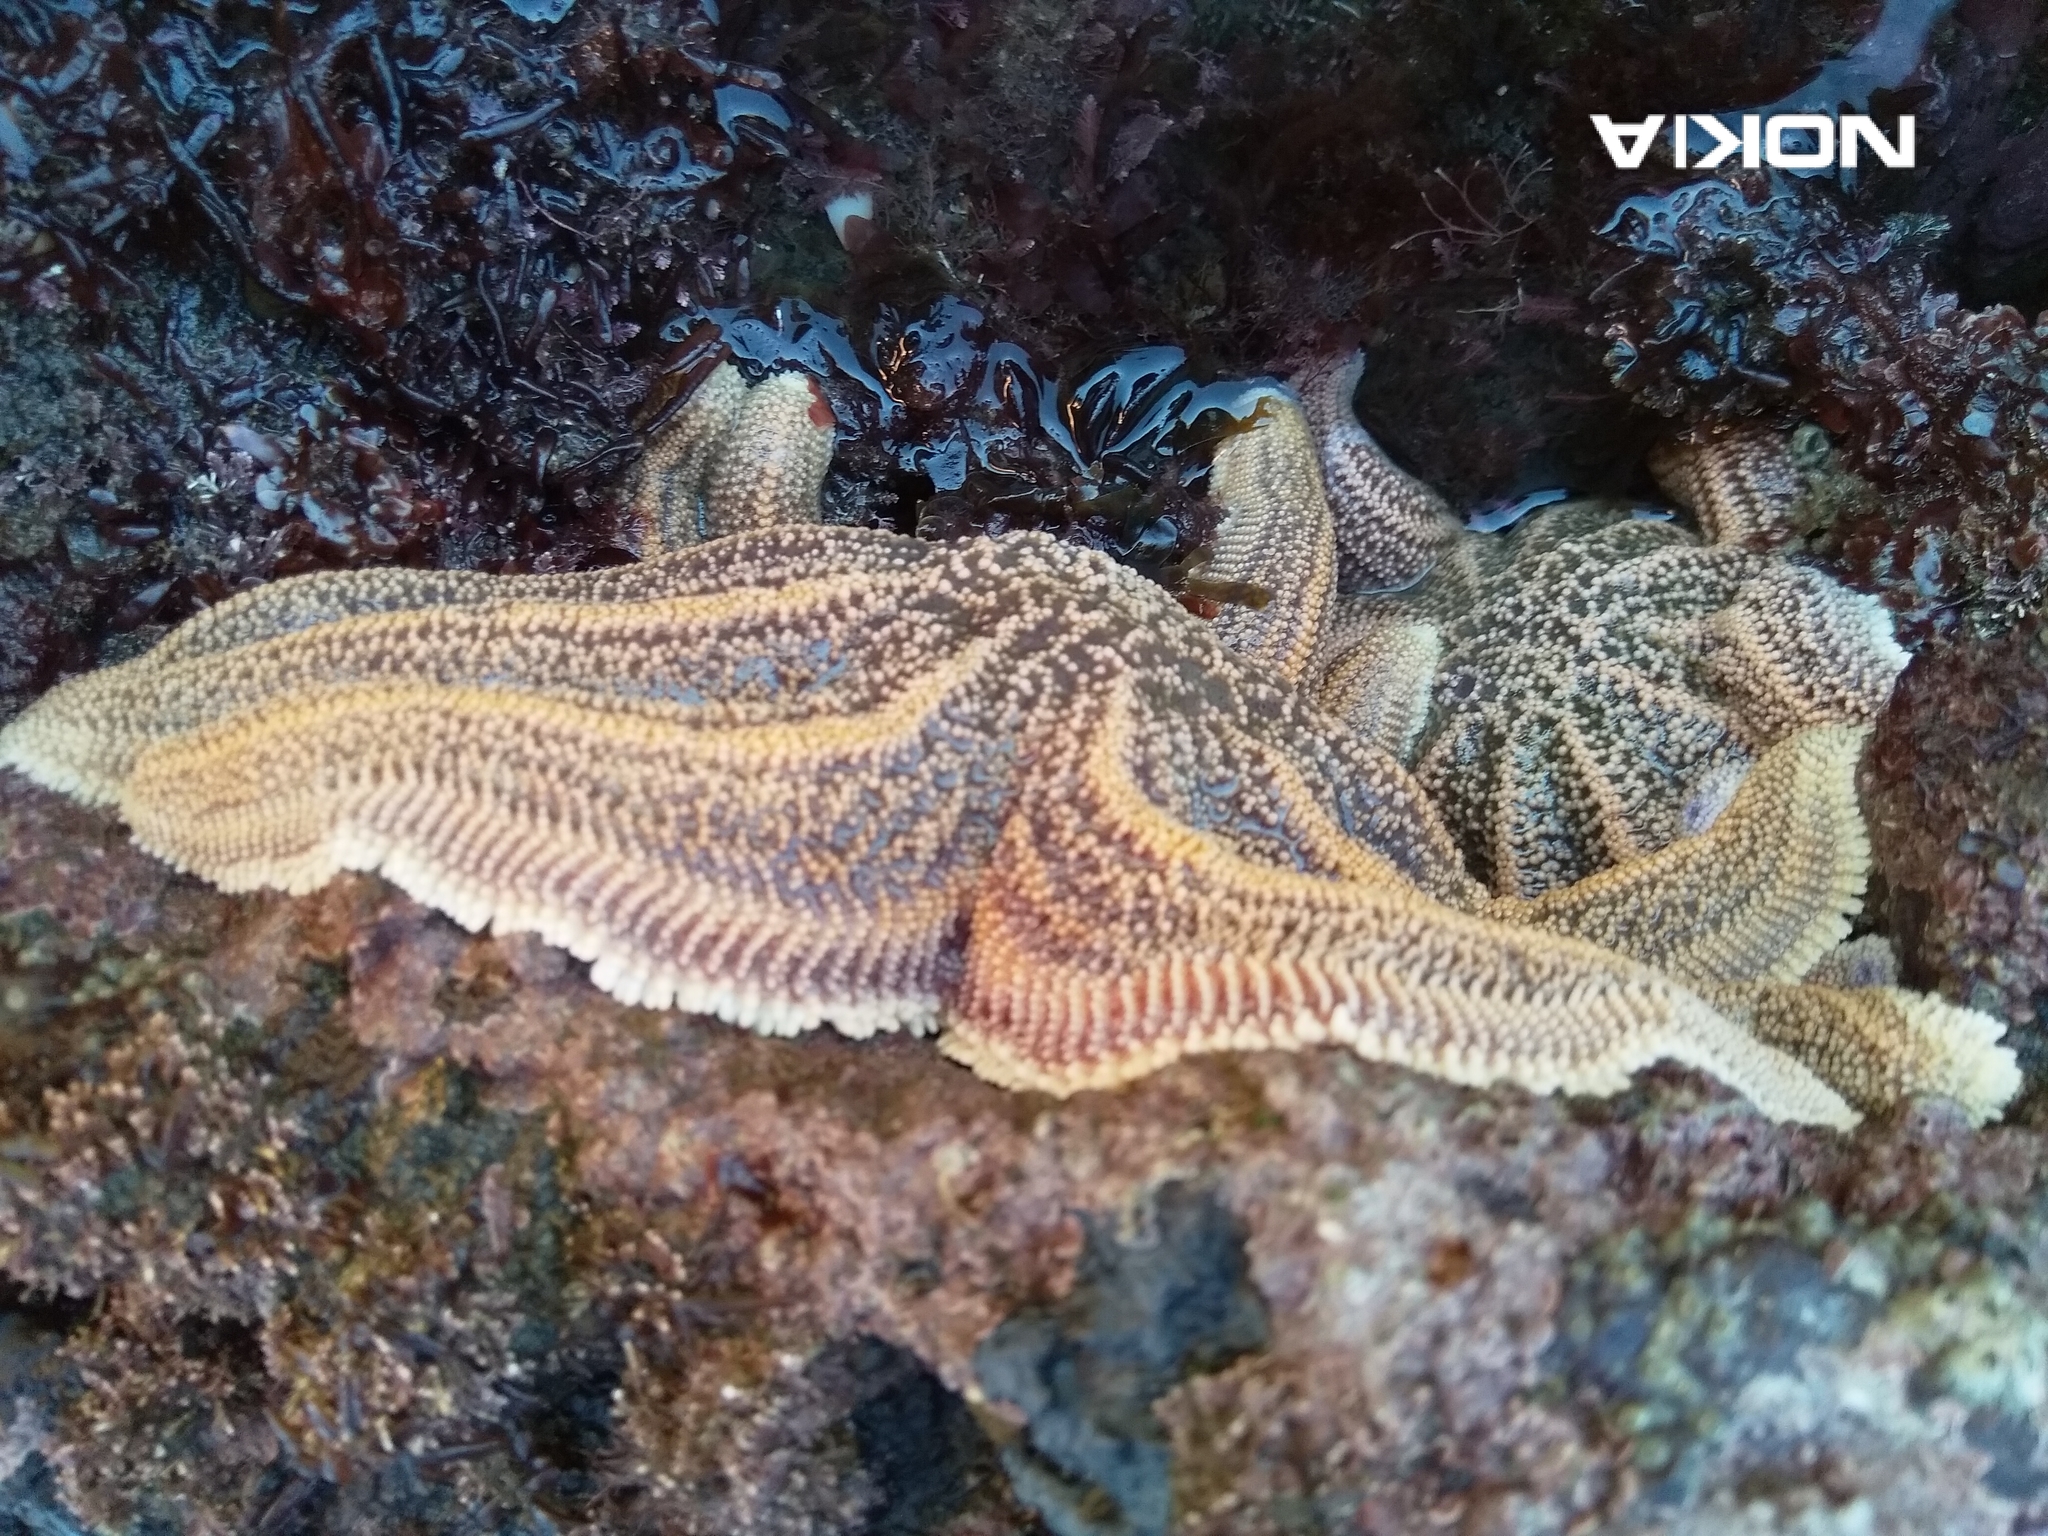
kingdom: Animalia
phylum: Echinodermata
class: Asteroidea
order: Forcipulatida
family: Stichasteridae
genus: Stichaster
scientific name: Stichaster australis
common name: Reef starfish
